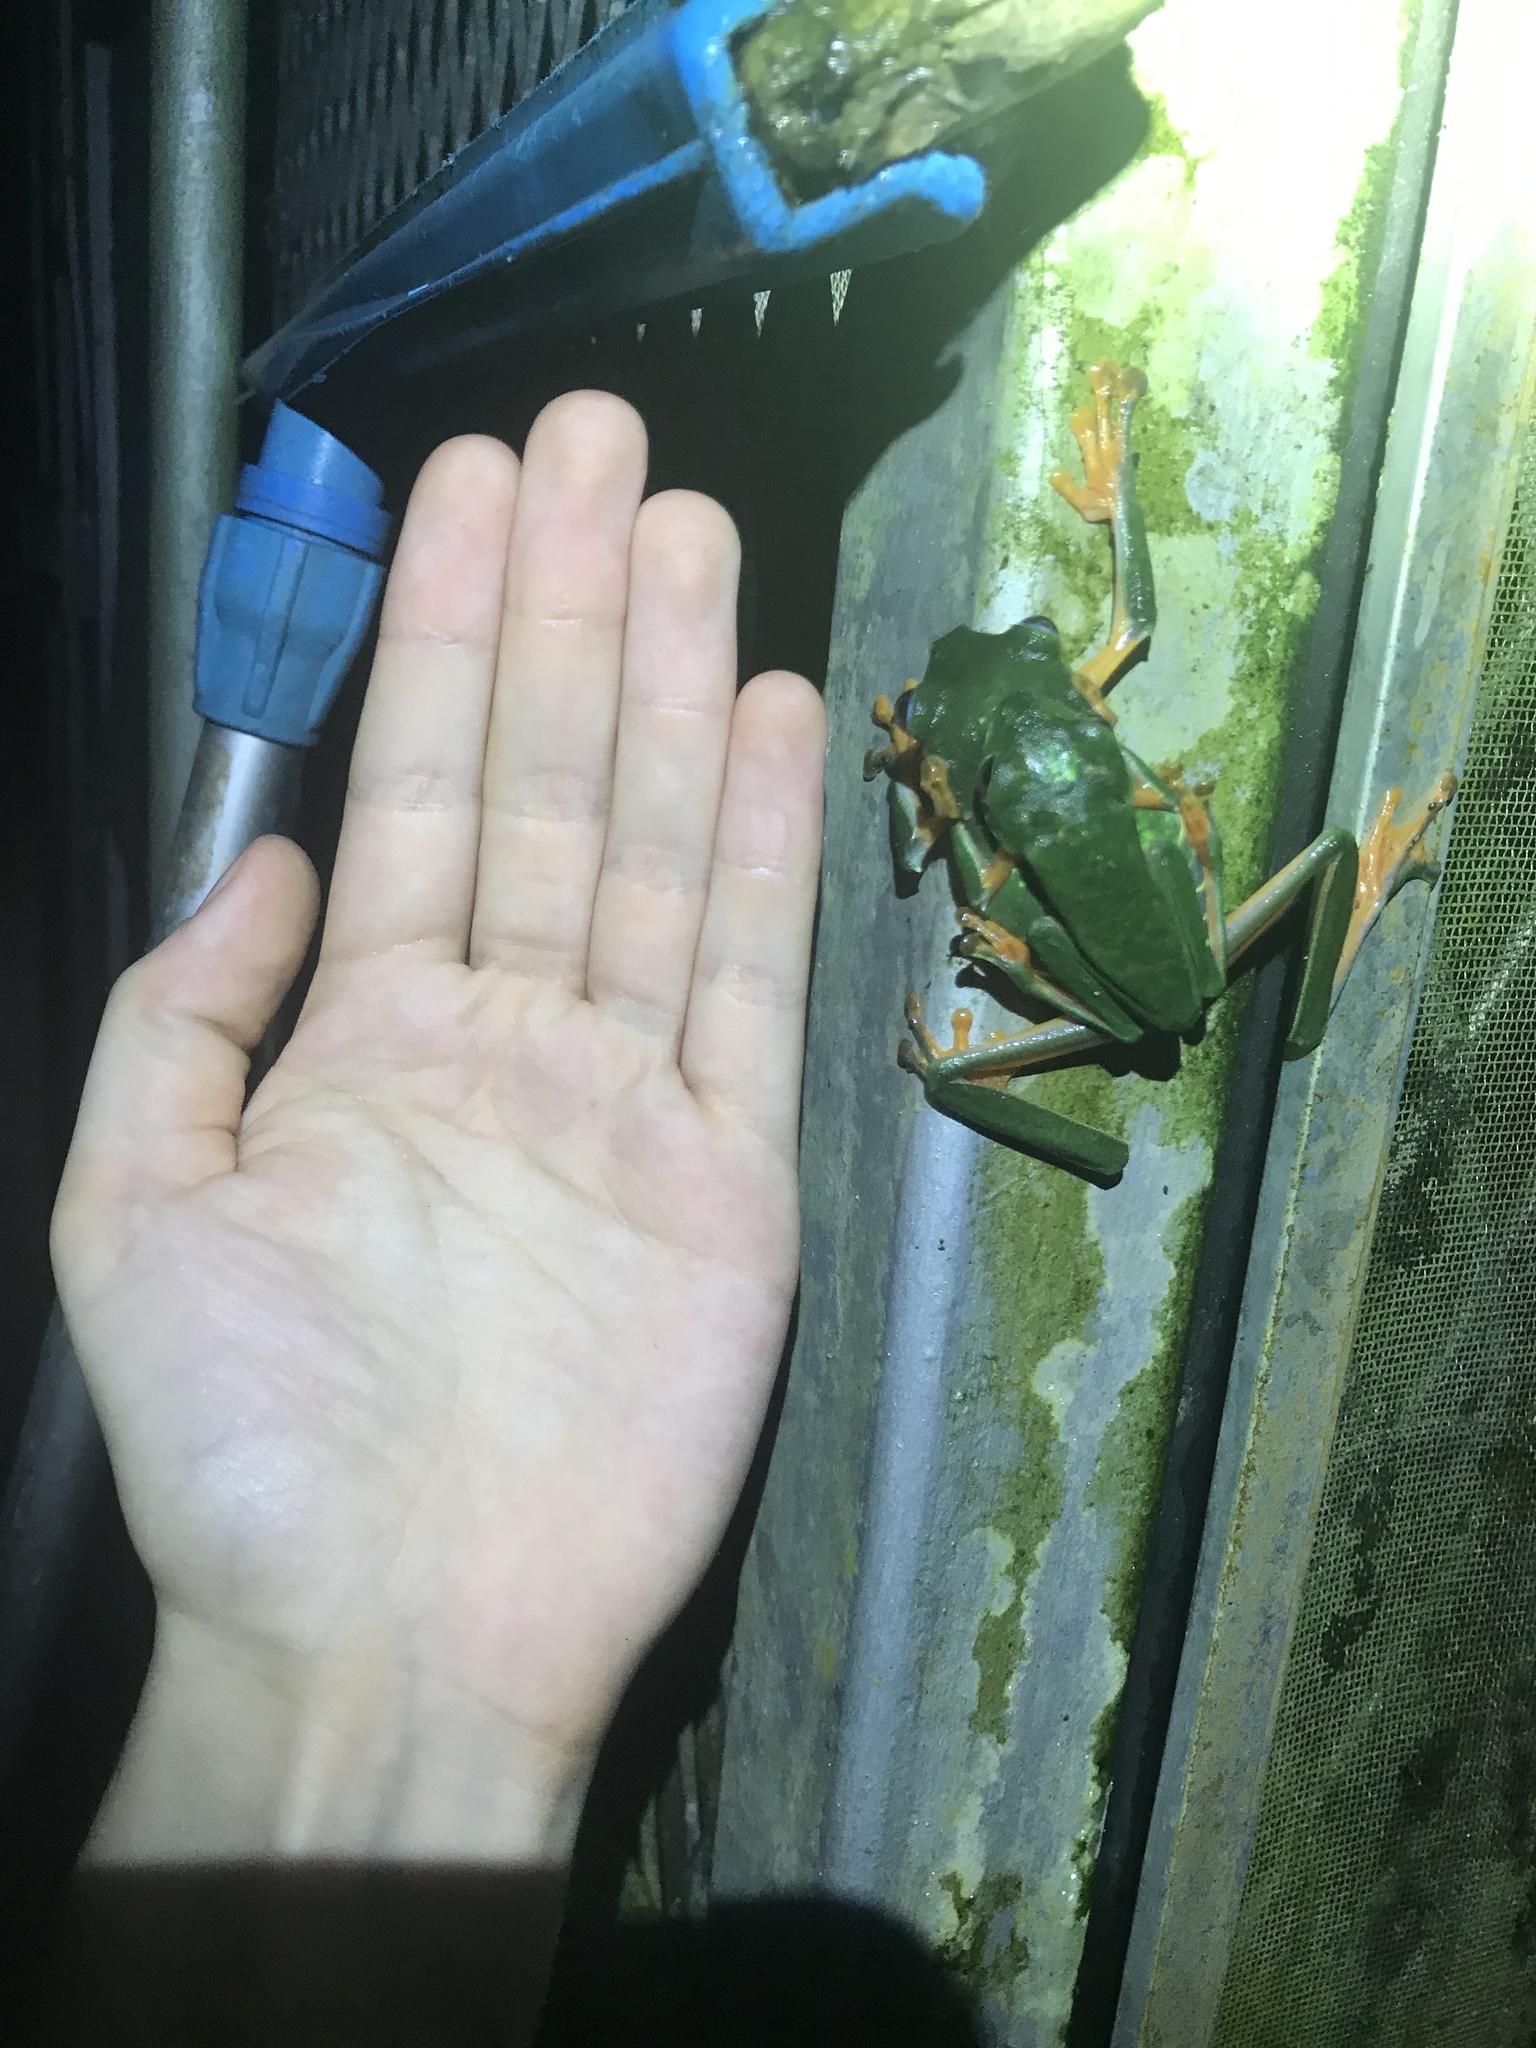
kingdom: Animalia
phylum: Chordata
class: Amphibia
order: Anura
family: Phyllomedusidae
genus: Agalychnis
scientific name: Agalychnis callidryas
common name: Red-eyed treefrog
